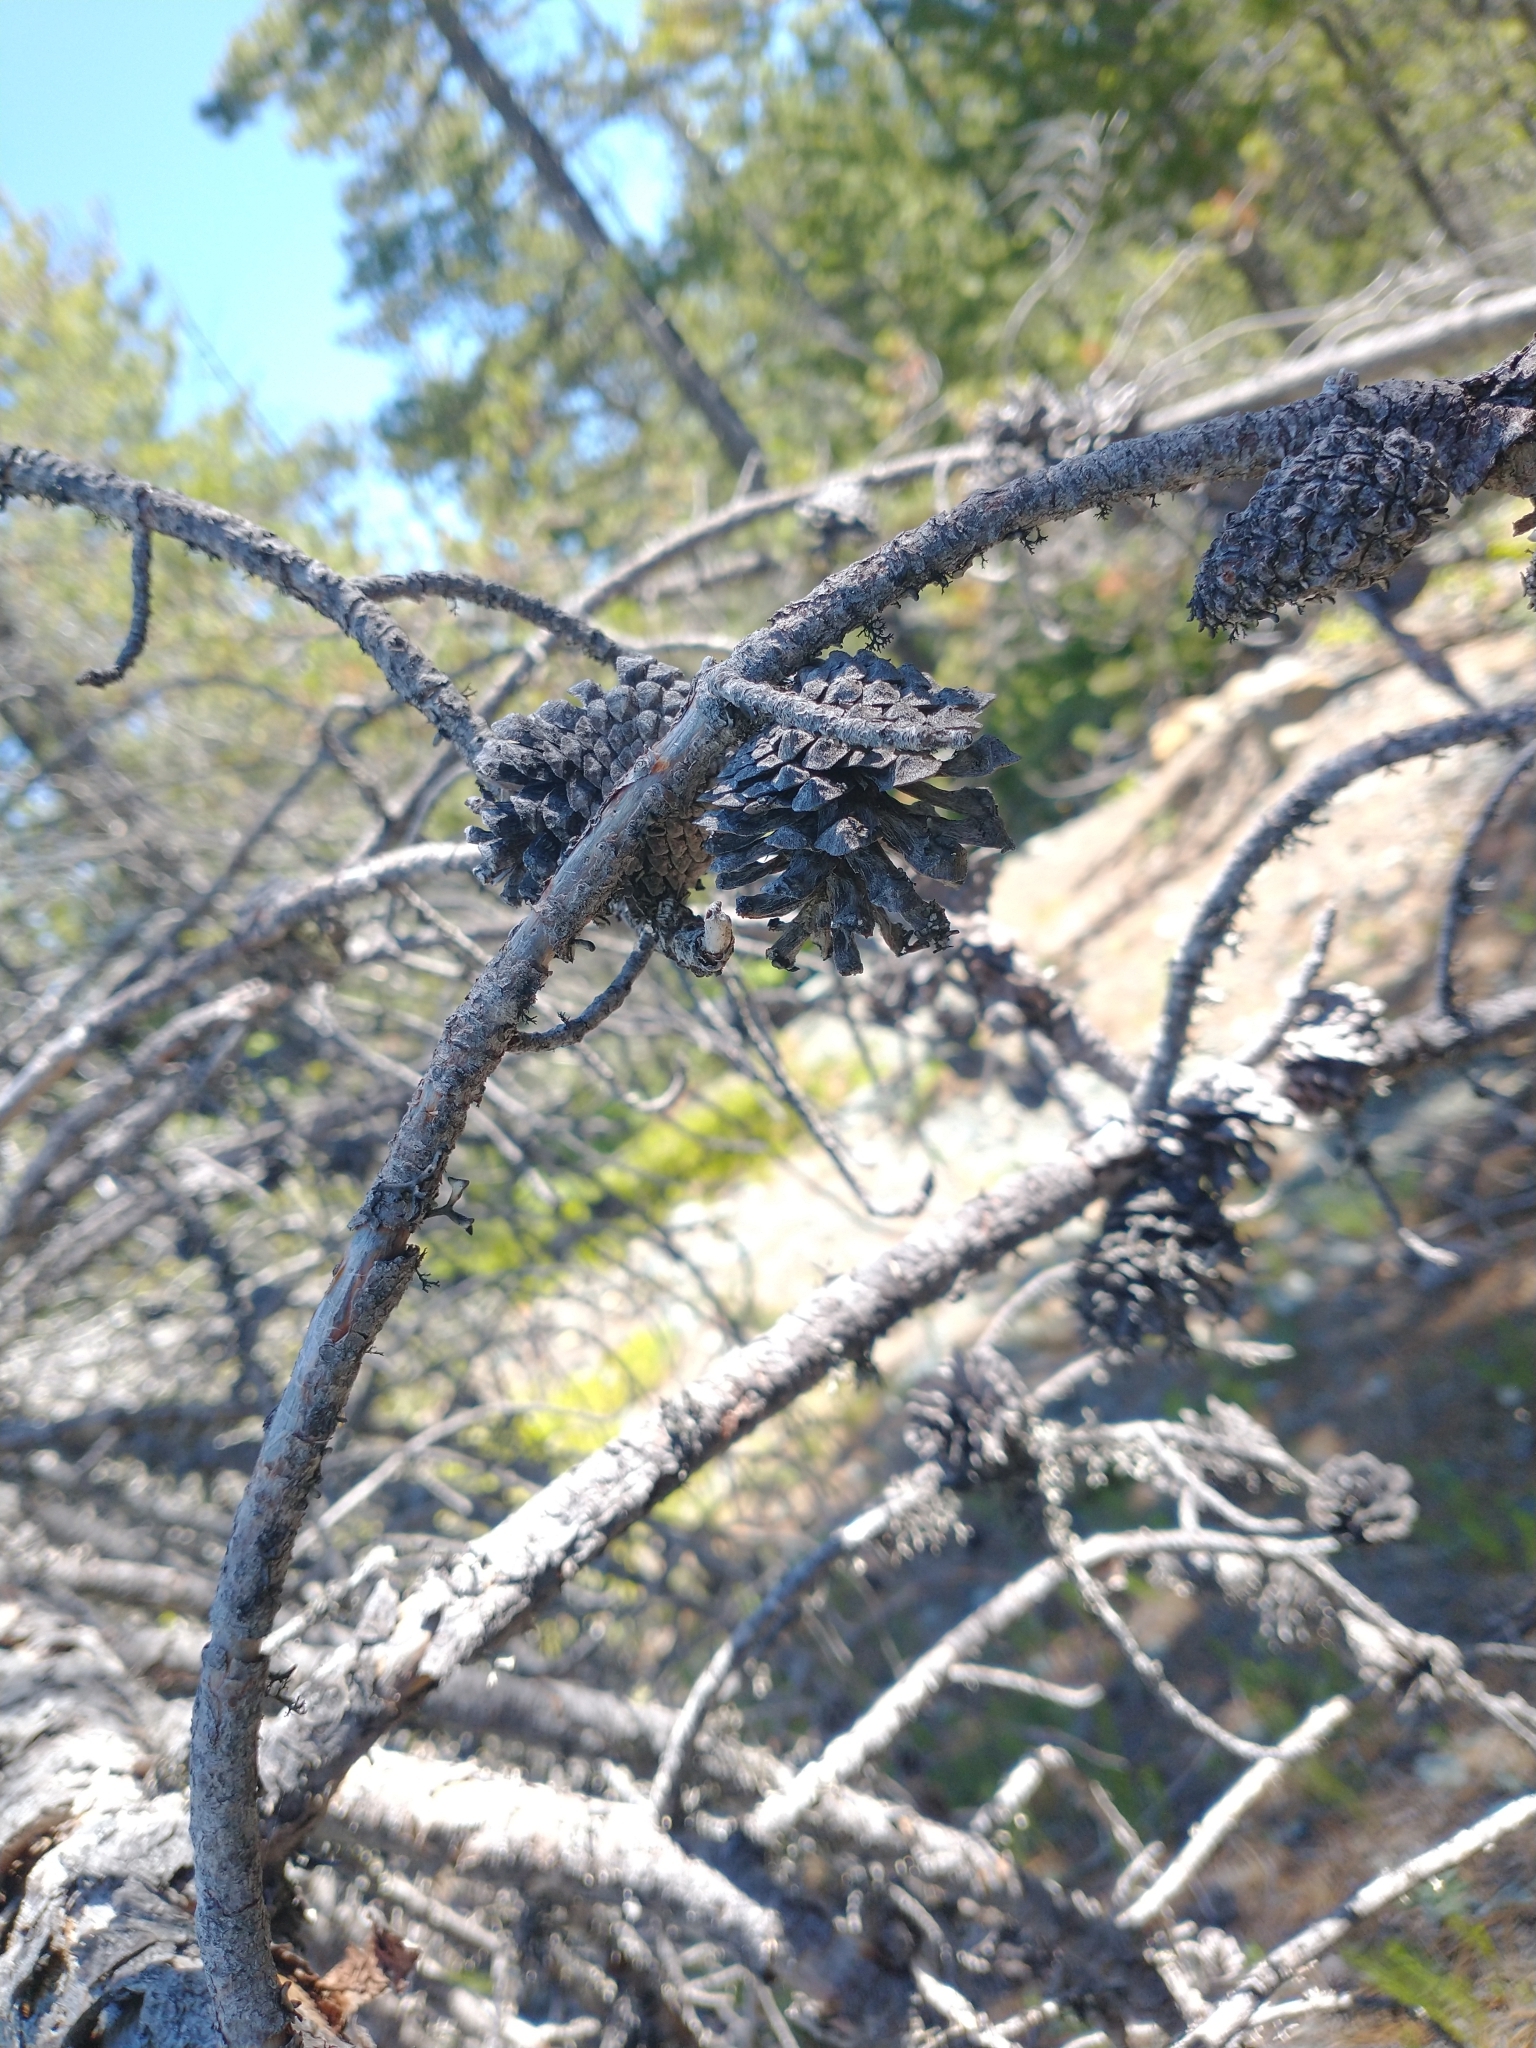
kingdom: Plantae
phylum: Tracheophyta
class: Pinopsida
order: Pinales
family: Pinaceae
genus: Pinus
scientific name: Pinus contorta
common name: Lodgepole pine
